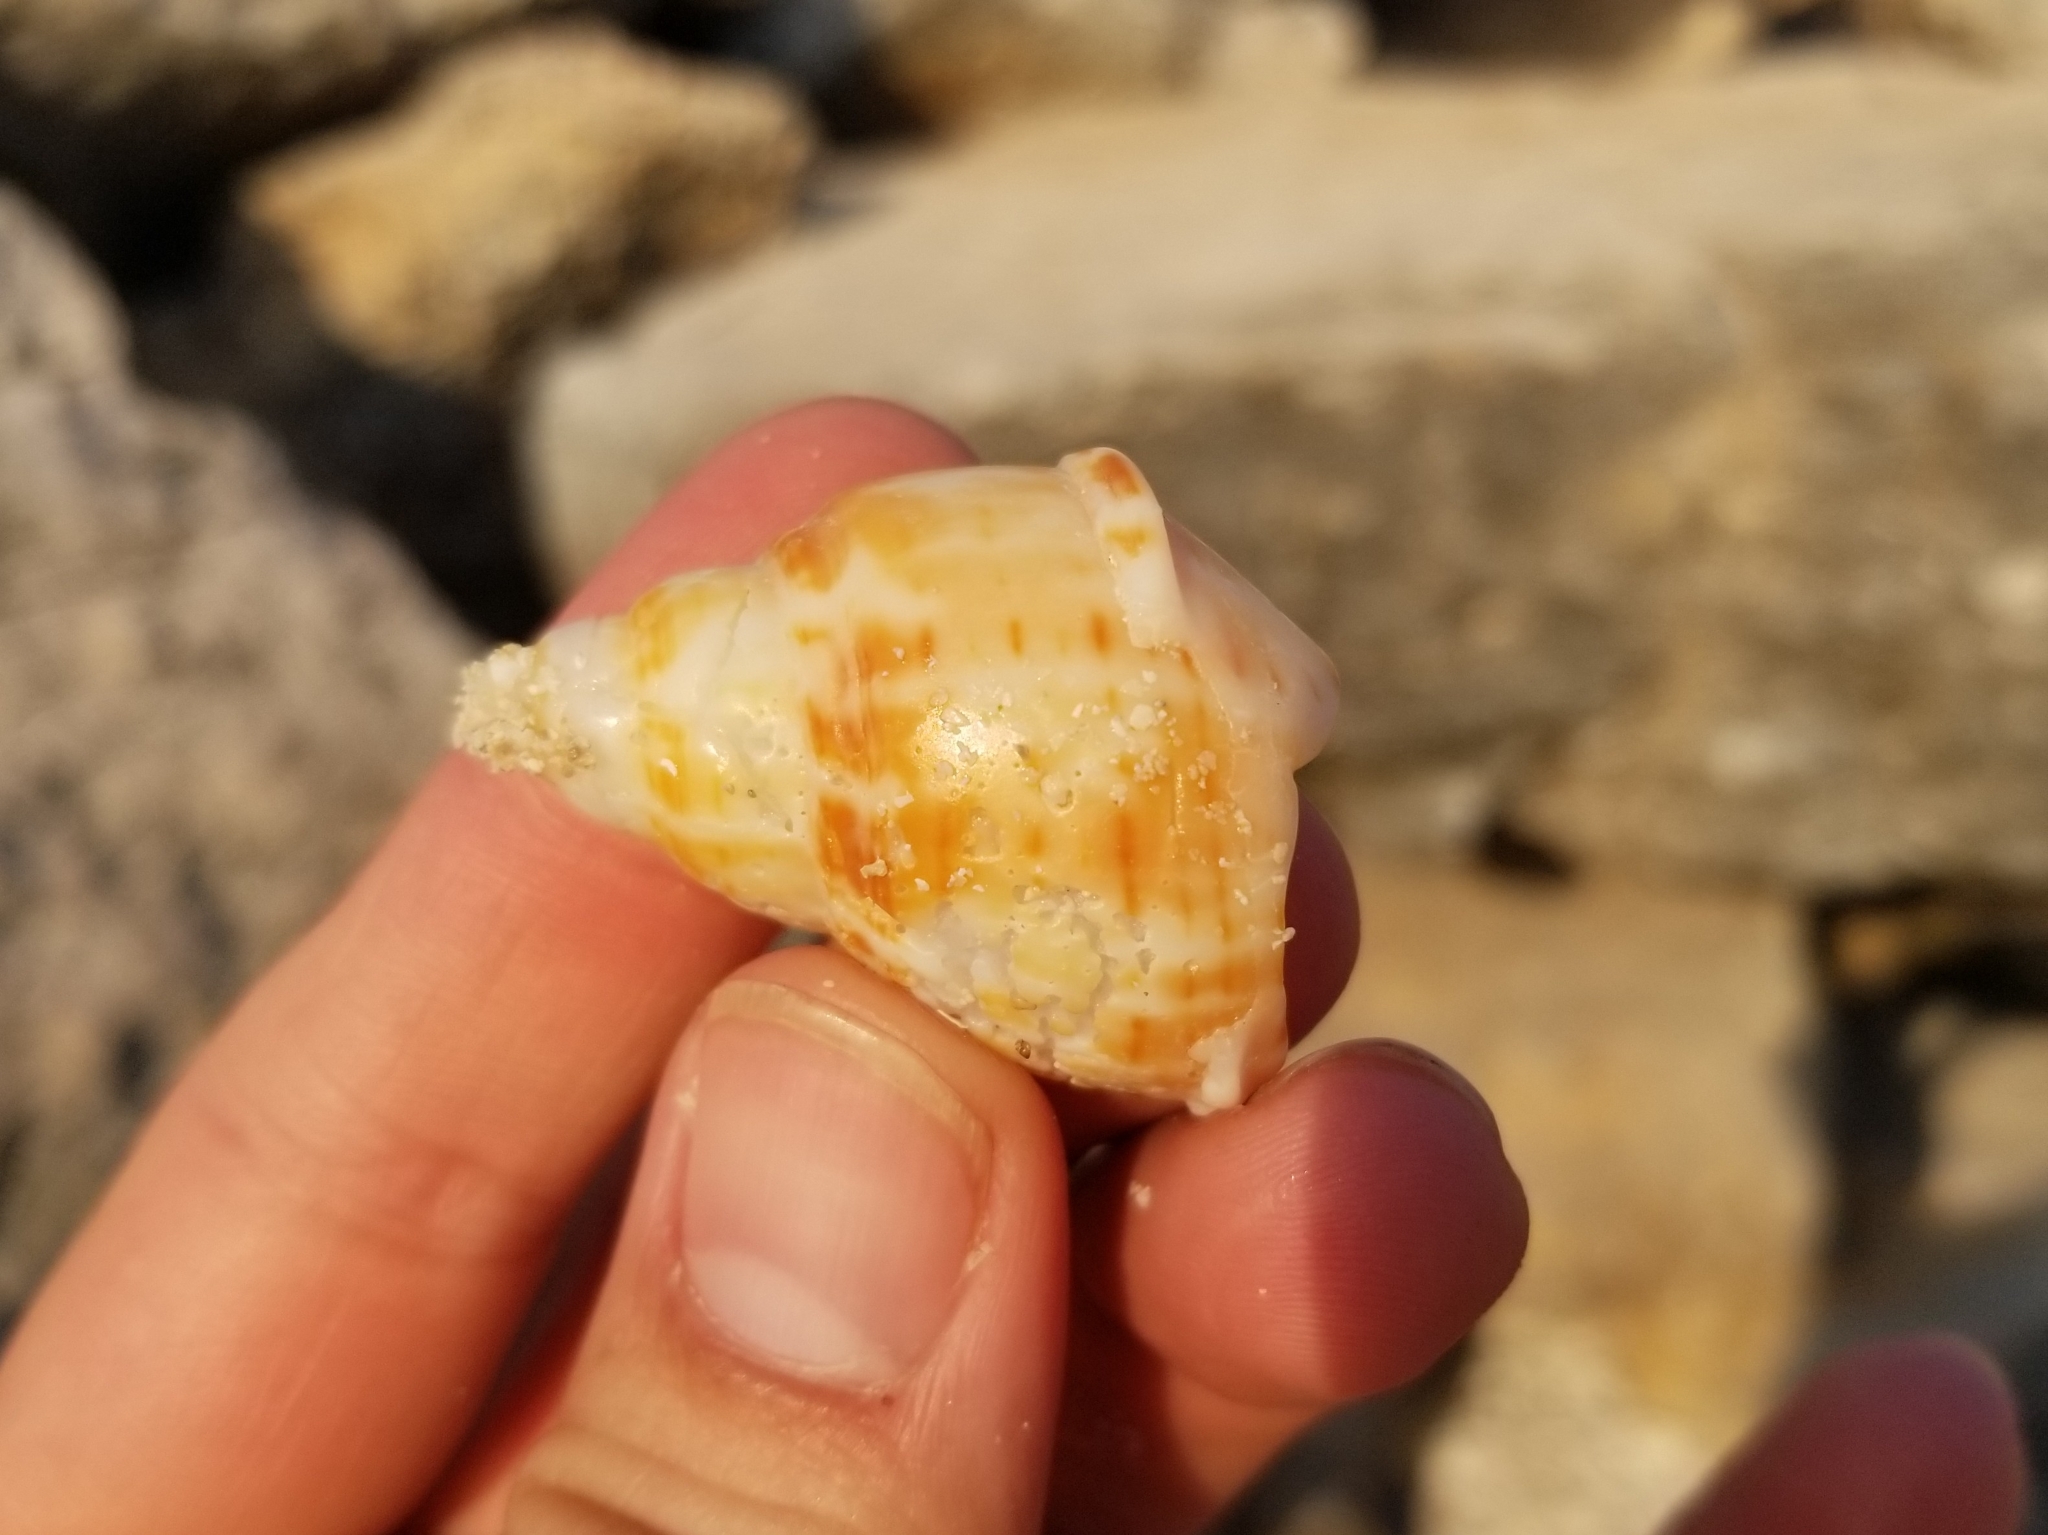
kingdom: Animalia
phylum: Mollusca
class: Gastropoda
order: Neogastropoda
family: Fasciolariidae
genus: Fasciolaria
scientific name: Fasciolaria tulipa
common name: True tulip
